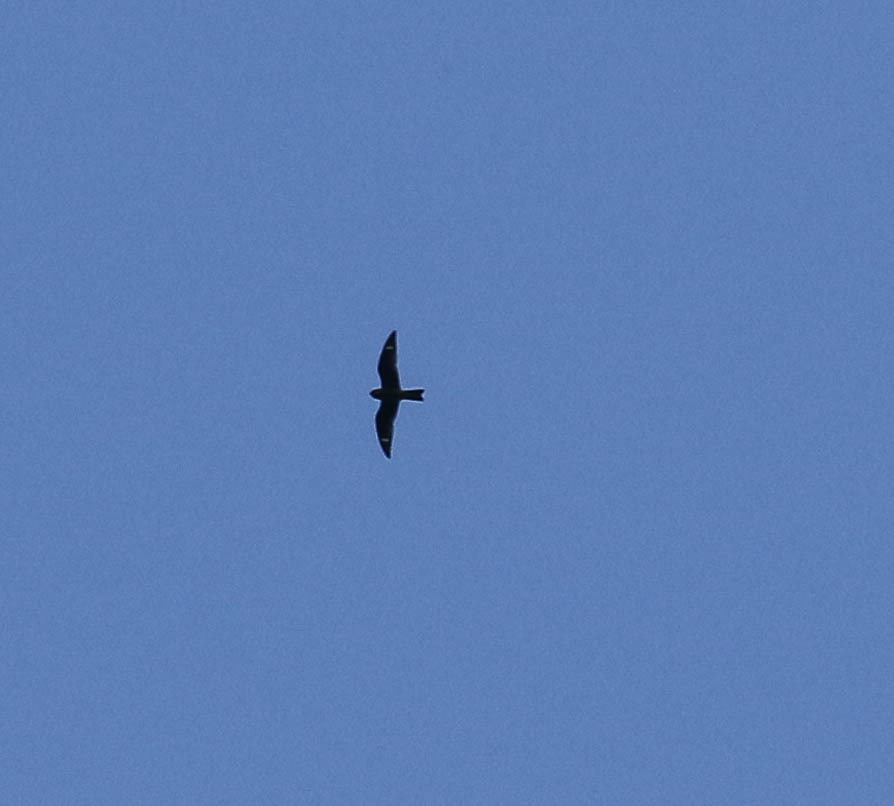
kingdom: Animalia
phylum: Chordata
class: Aves
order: Caprimulgiformes
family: Caprimulgidae
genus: Chordeiles
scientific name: Chordeiles minor
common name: Common nighthawk
